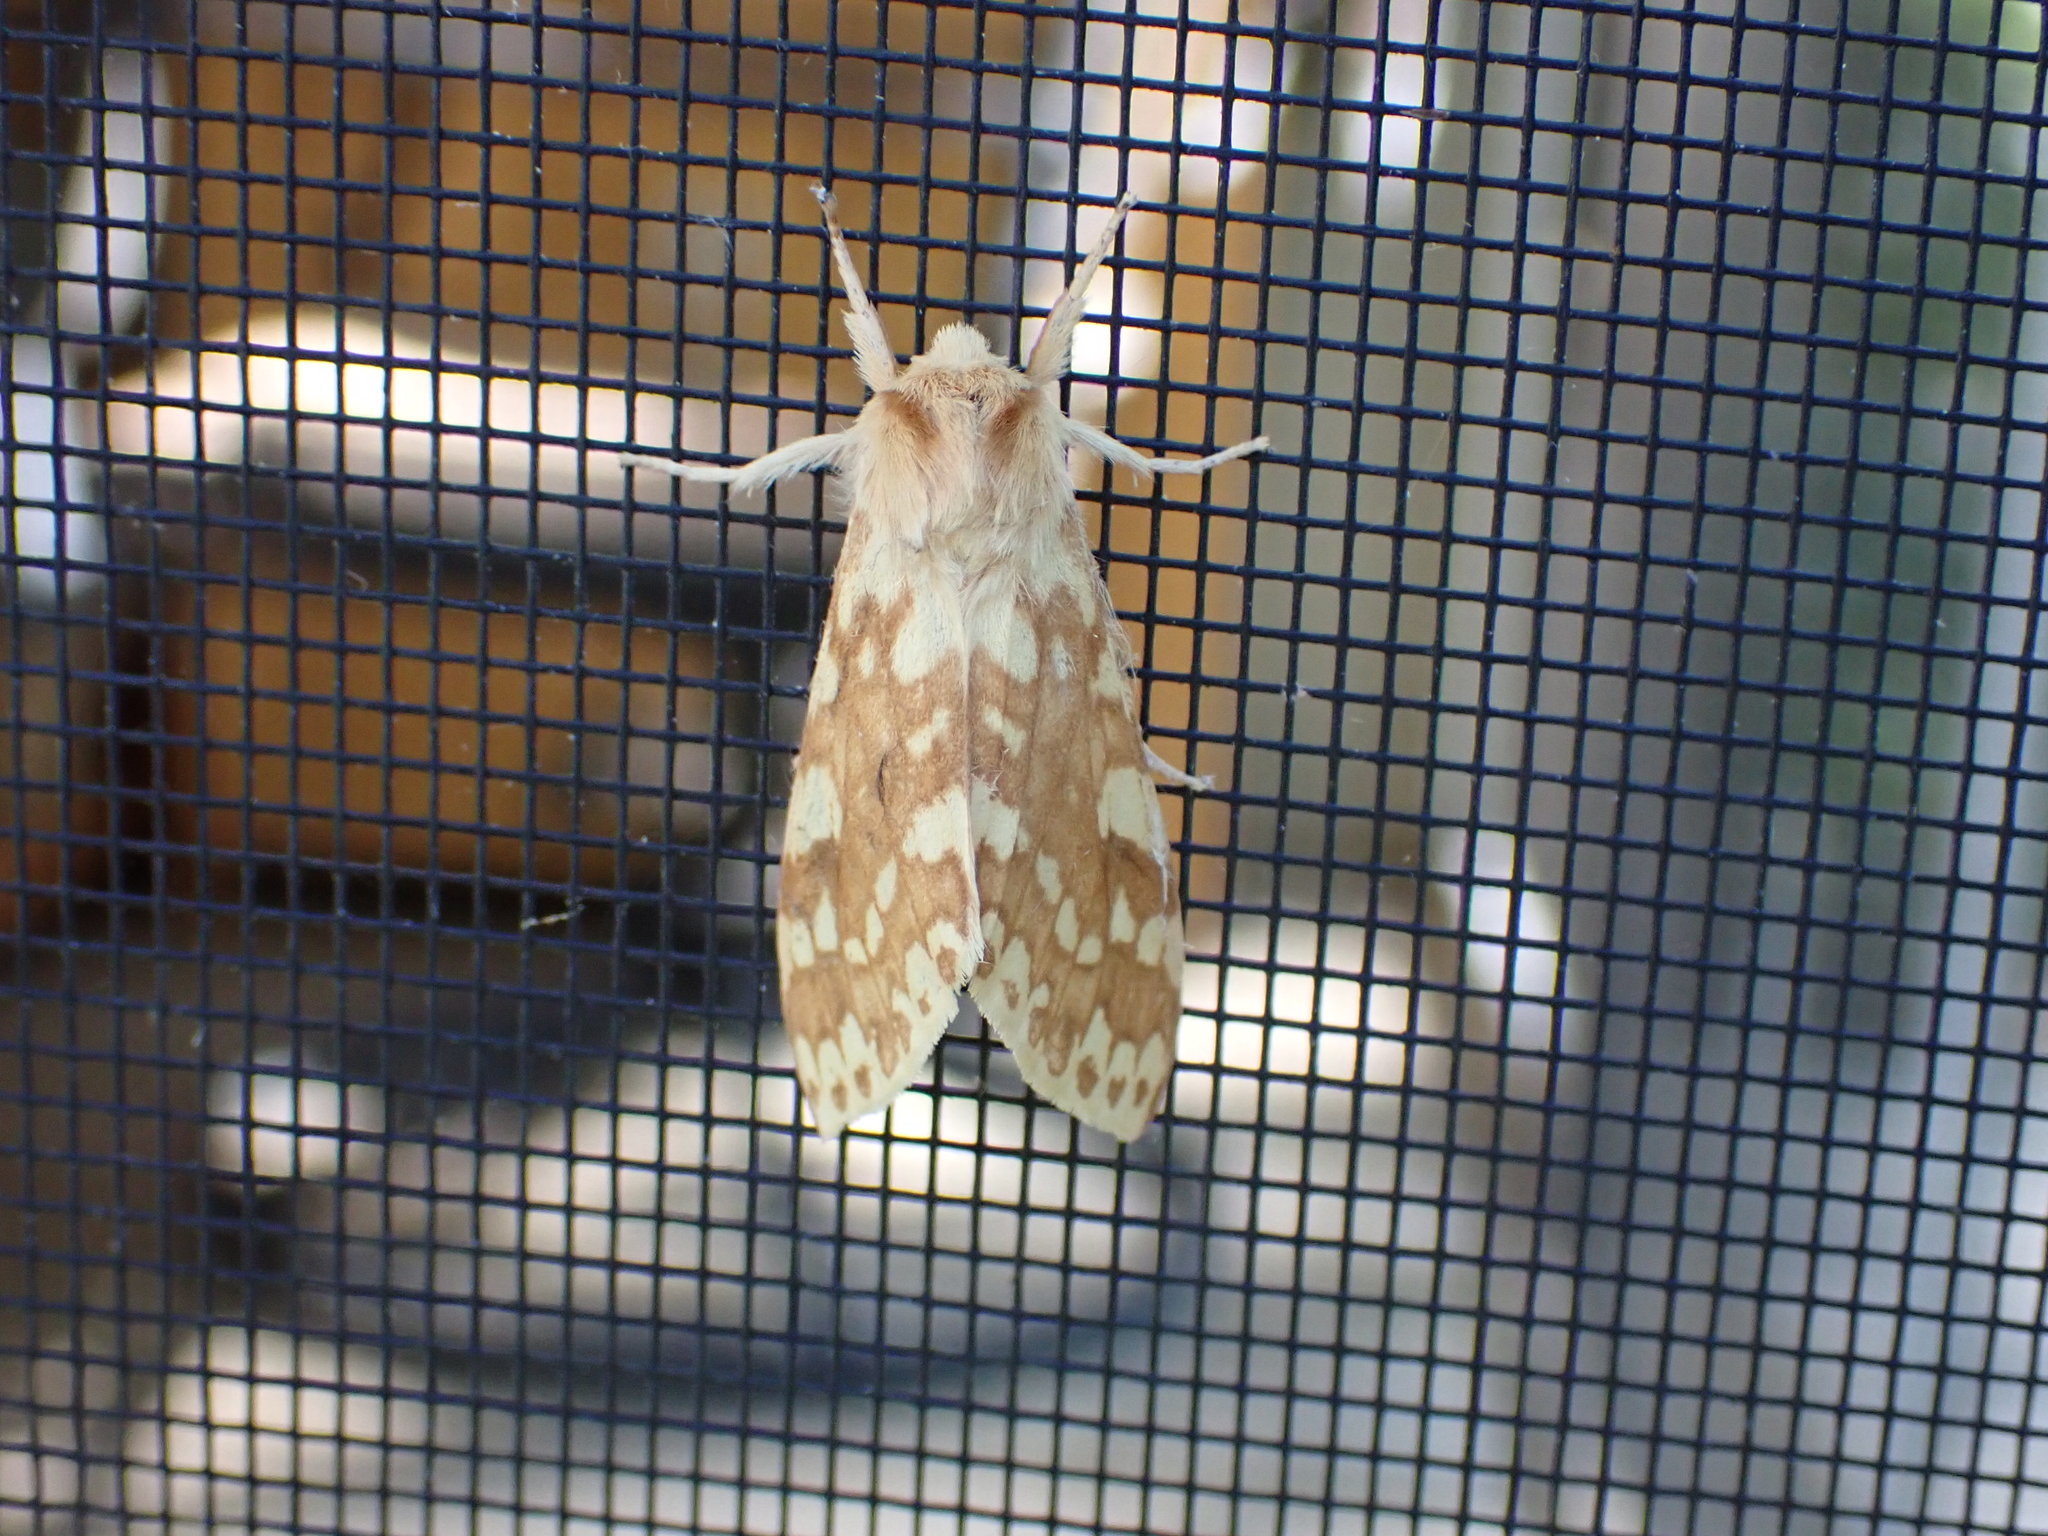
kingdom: Animalia
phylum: Arthropoda
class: Insecta
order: Lepidoptera
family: Erebidae
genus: Lophocampa
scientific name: Lophocampa maculata
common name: Spotted tussock moth
